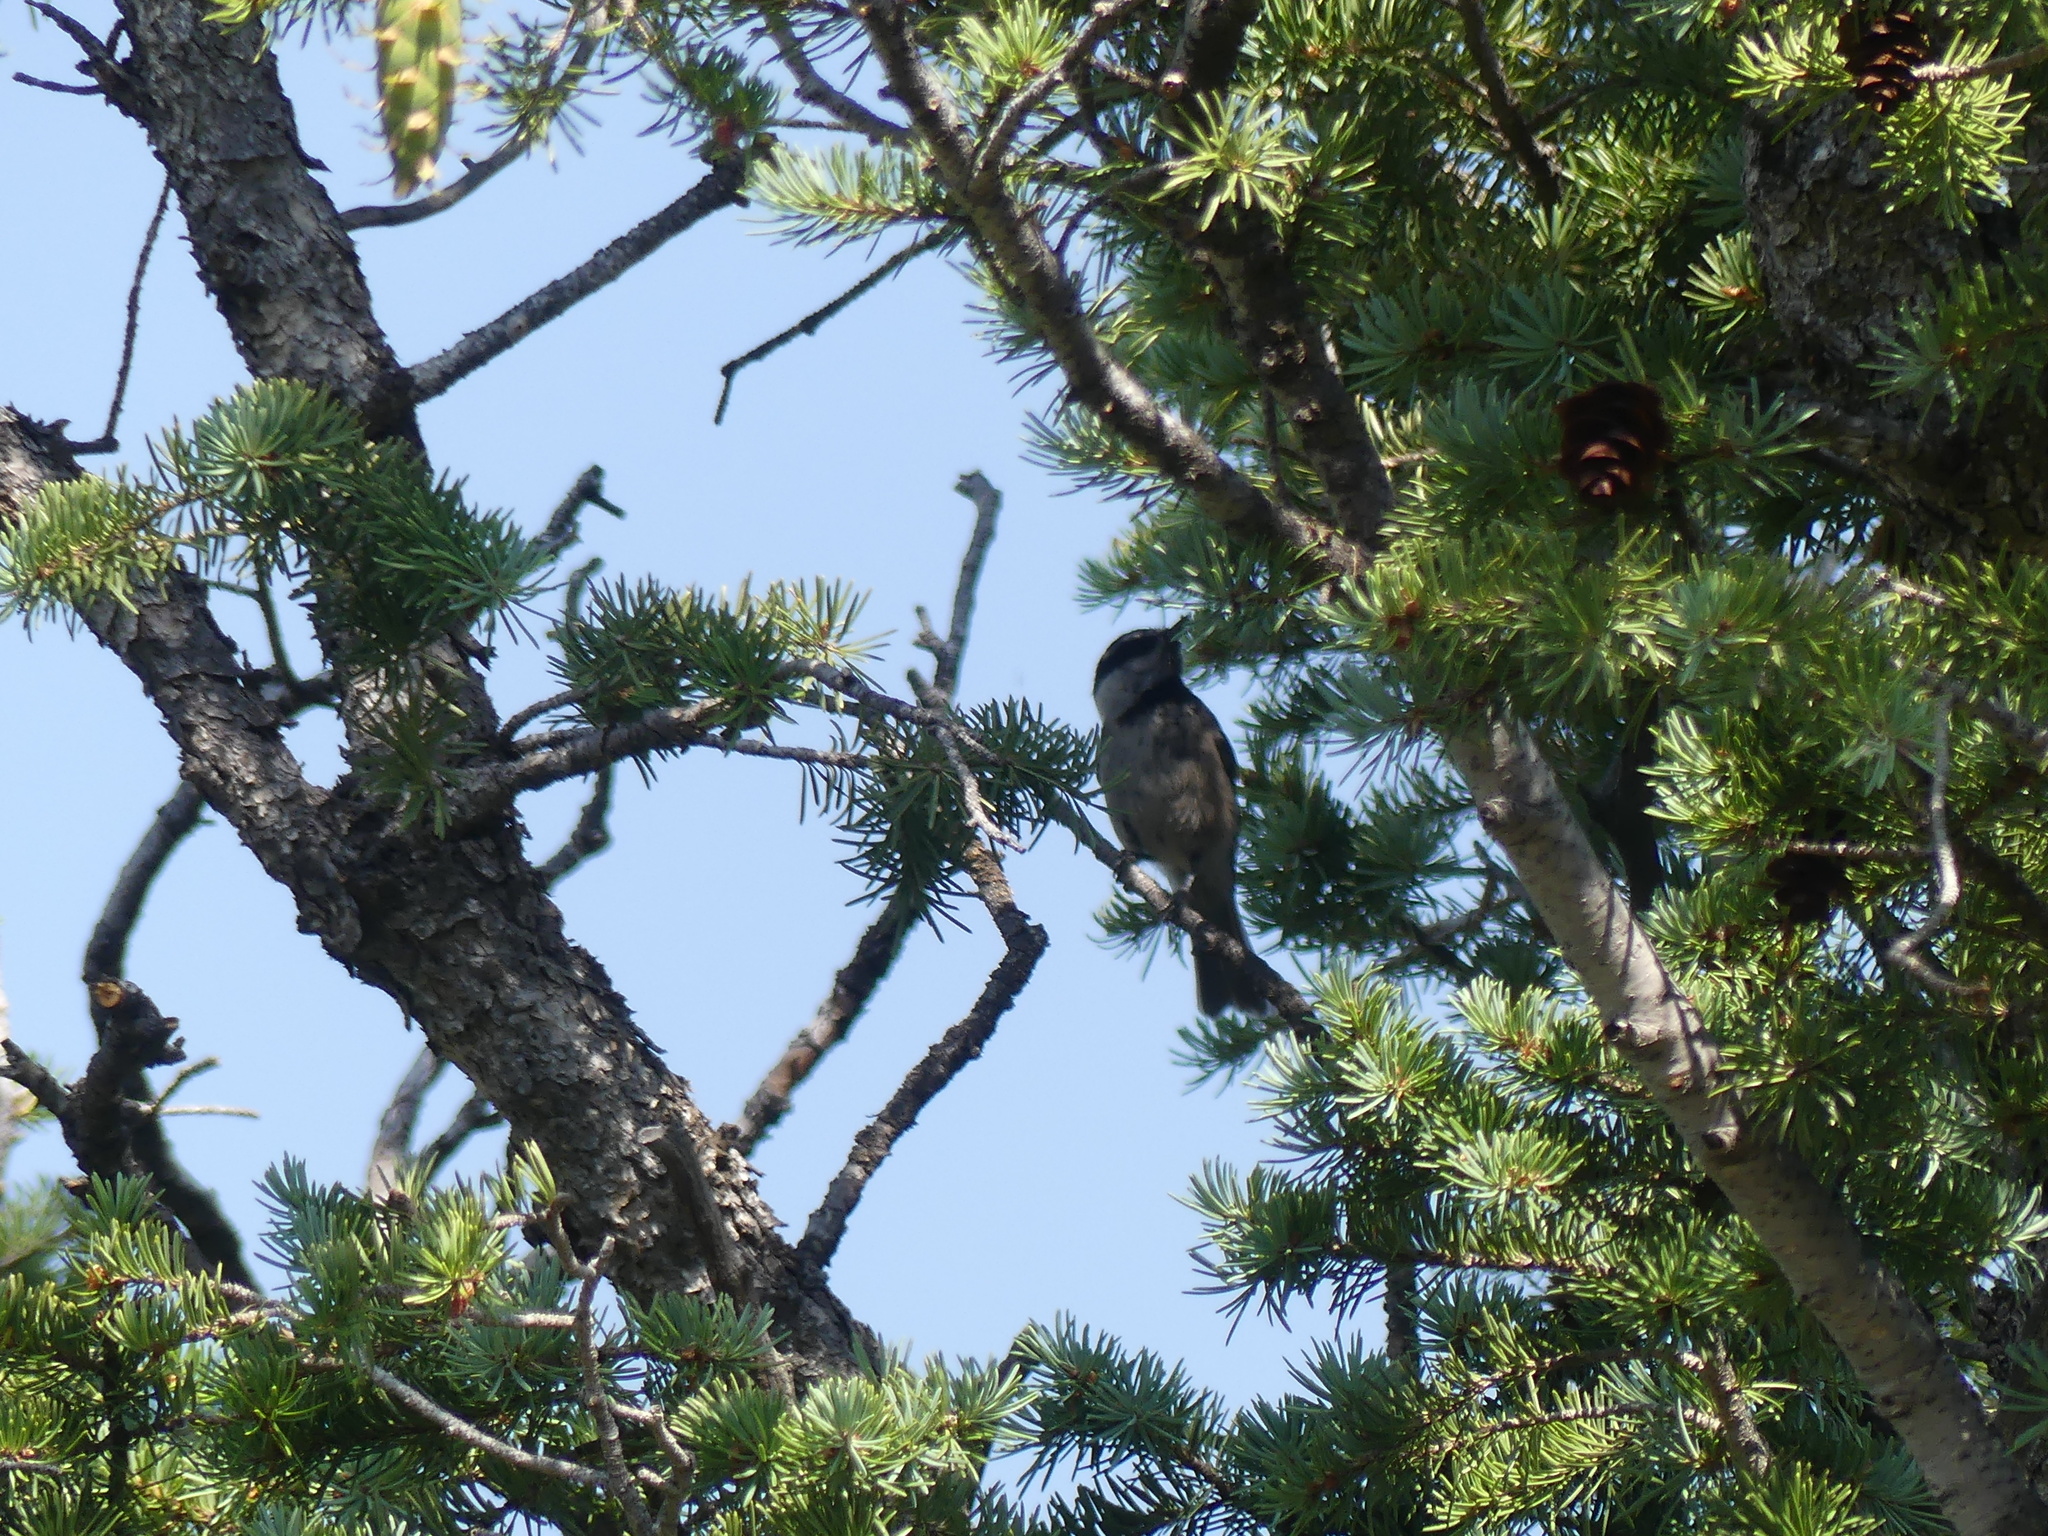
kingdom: Animalia
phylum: Chordata
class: Aves
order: Passeriformes
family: Paridae
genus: Poecile
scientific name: Poecile gambeli
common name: Mountain chickadee
